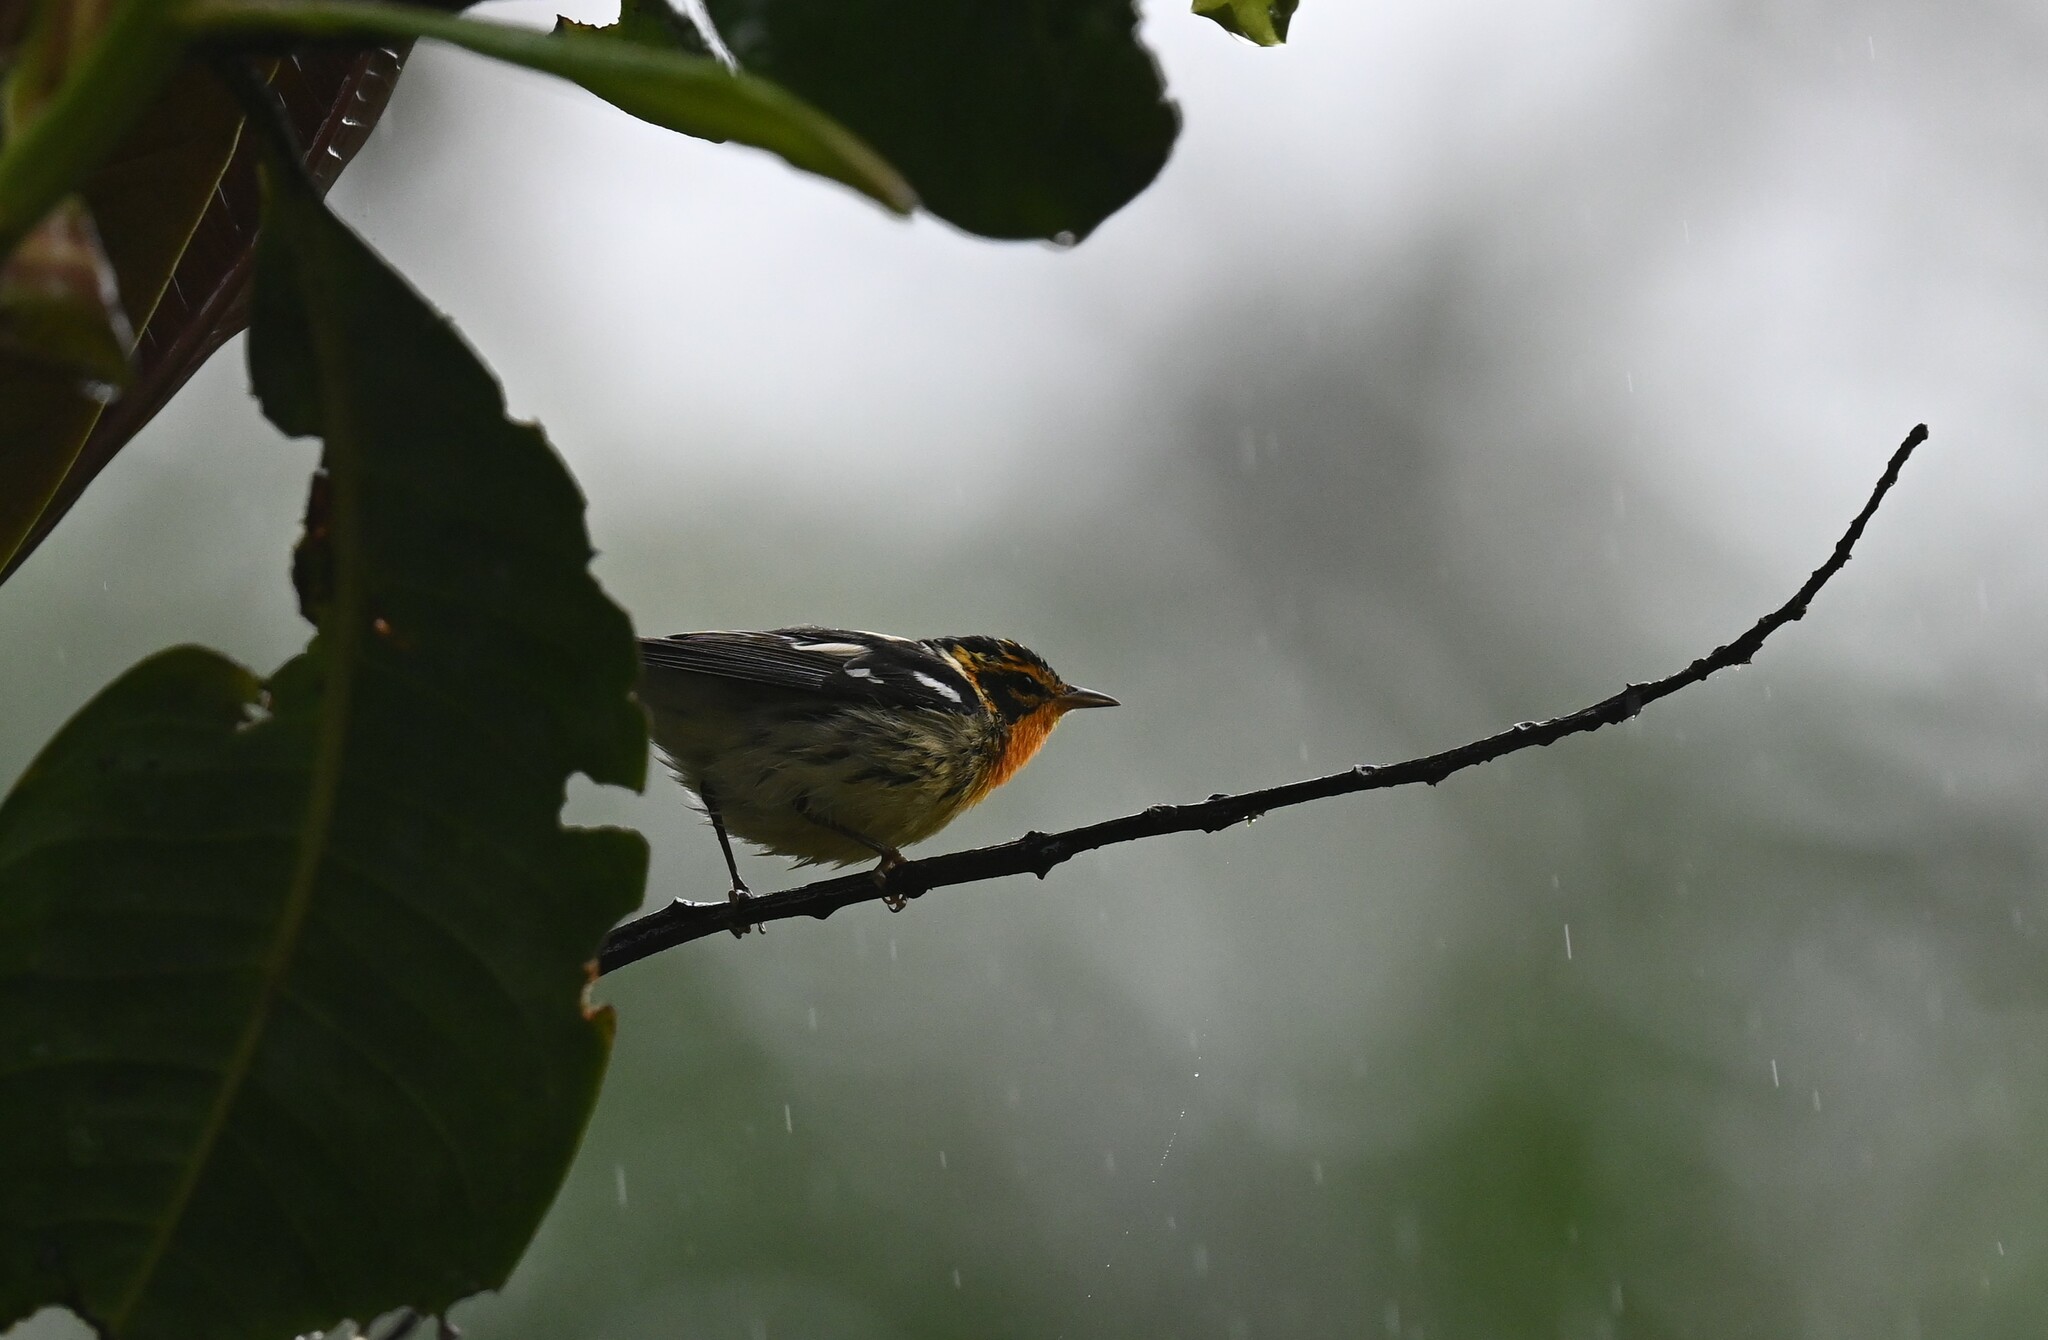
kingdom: Animalia
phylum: Chordata
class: Aves
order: Passeriformes
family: Parulidae
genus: Setophaga
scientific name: Setophaga fusca
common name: Blackburnian warbler
